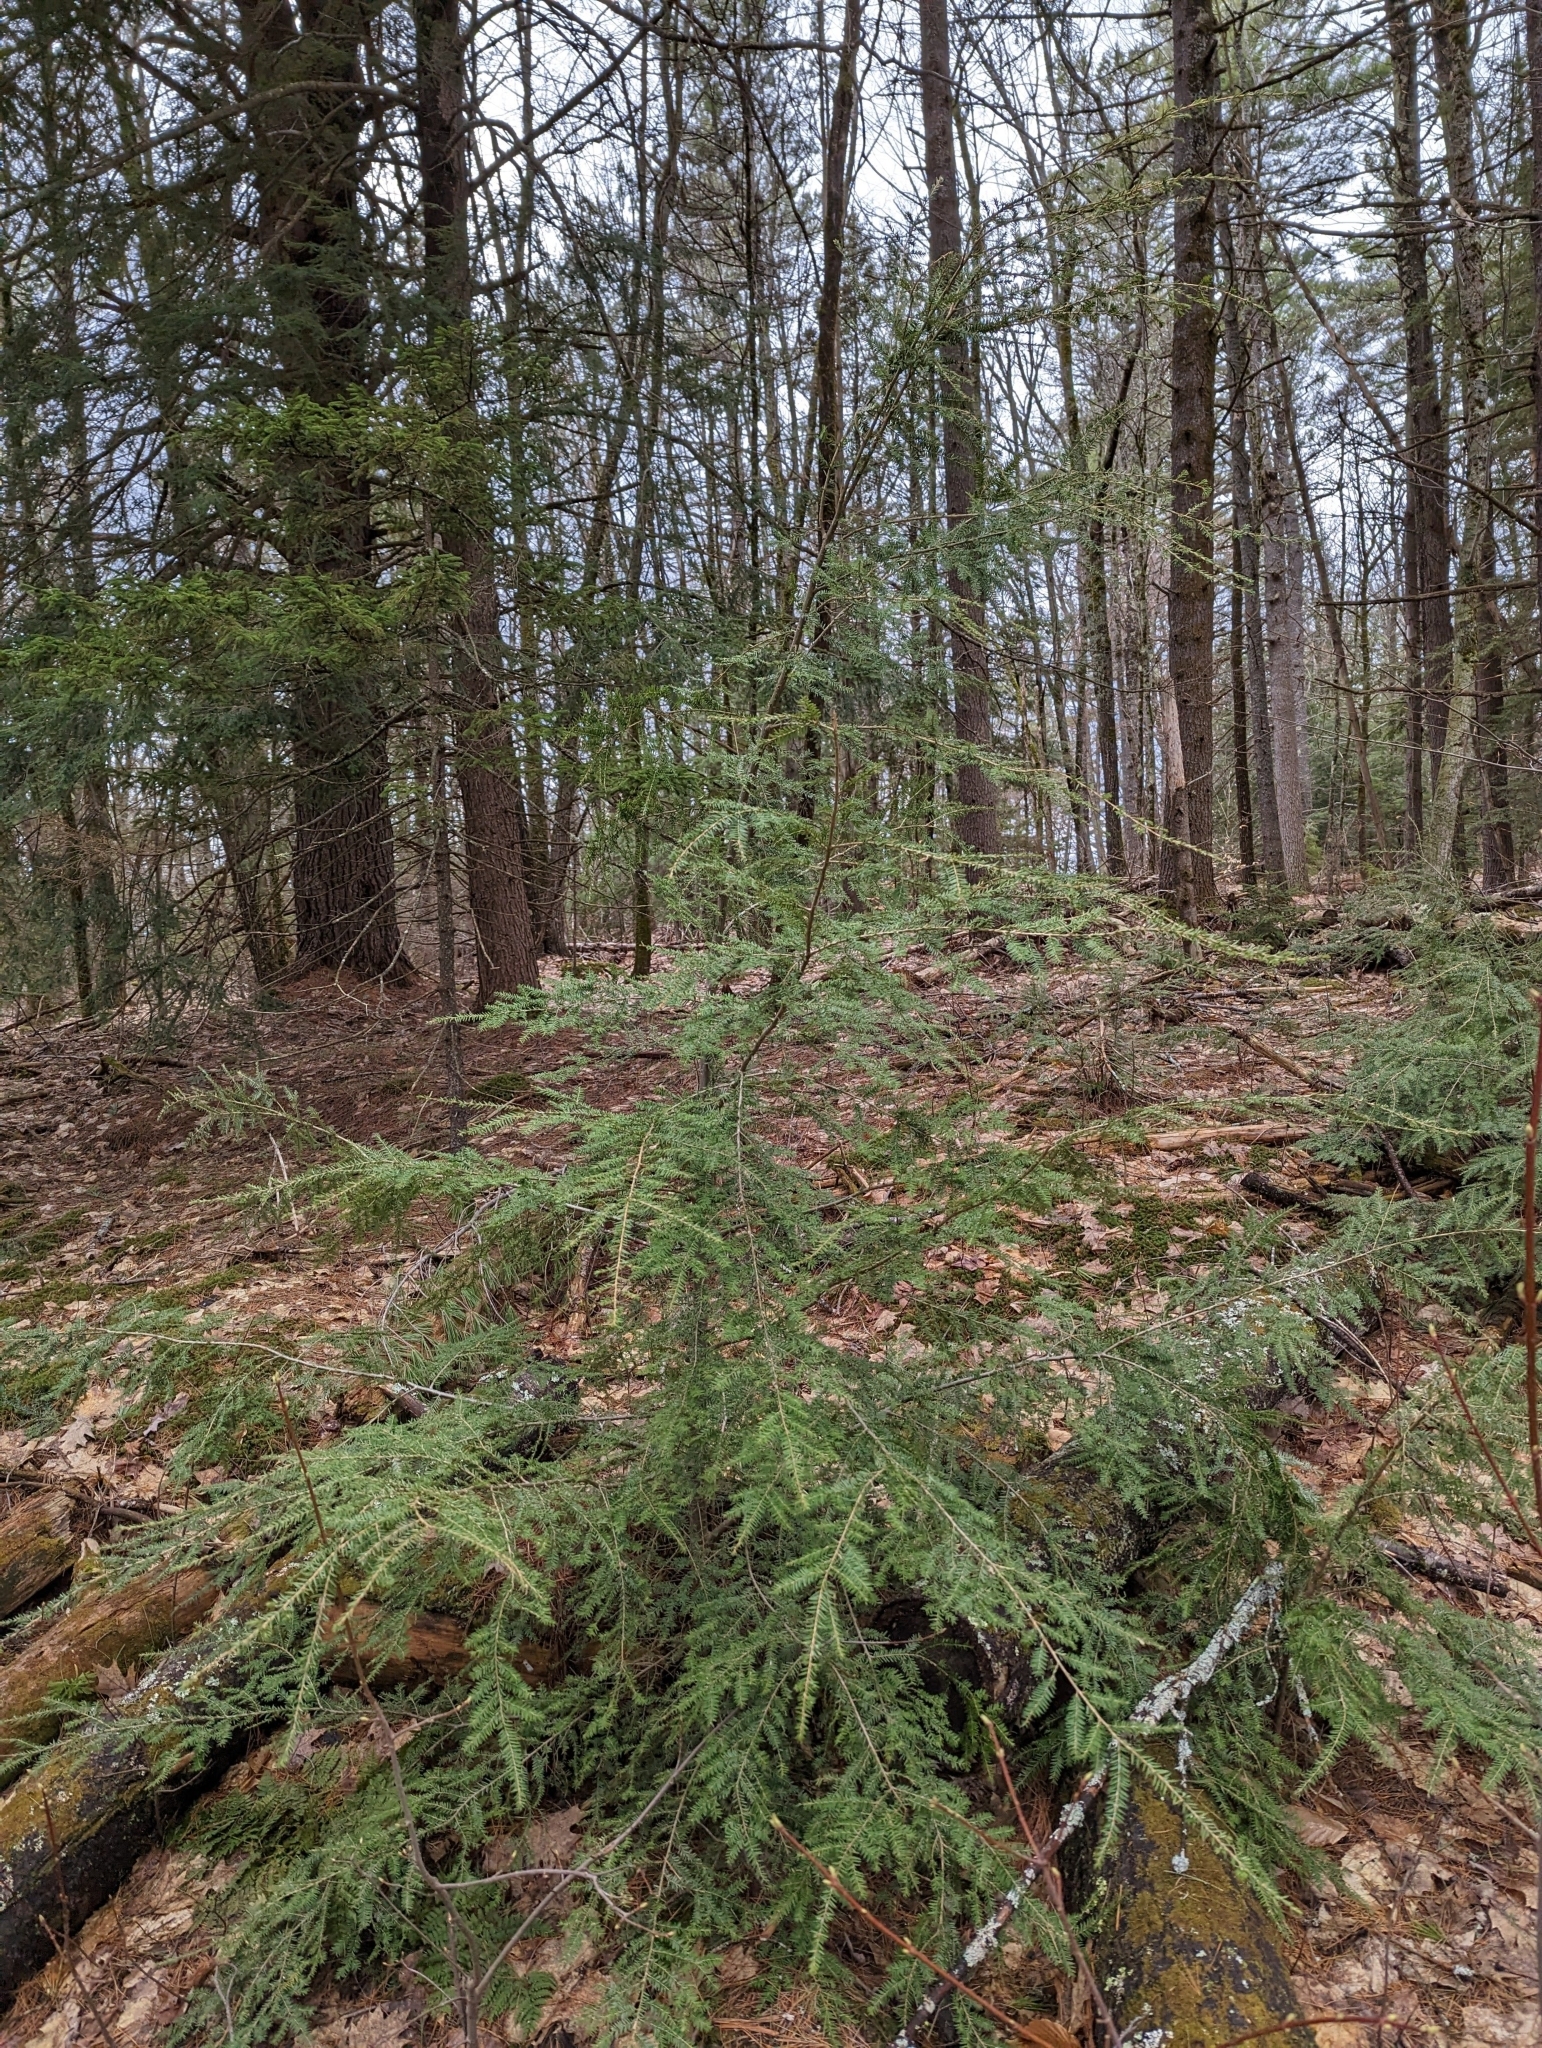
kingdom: Plantae
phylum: Tracheophyta
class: Pinopsida
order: Pinales
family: Pinaceae
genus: Tsuga
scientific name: Tsuga canadensis
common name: Eastern hemlock
